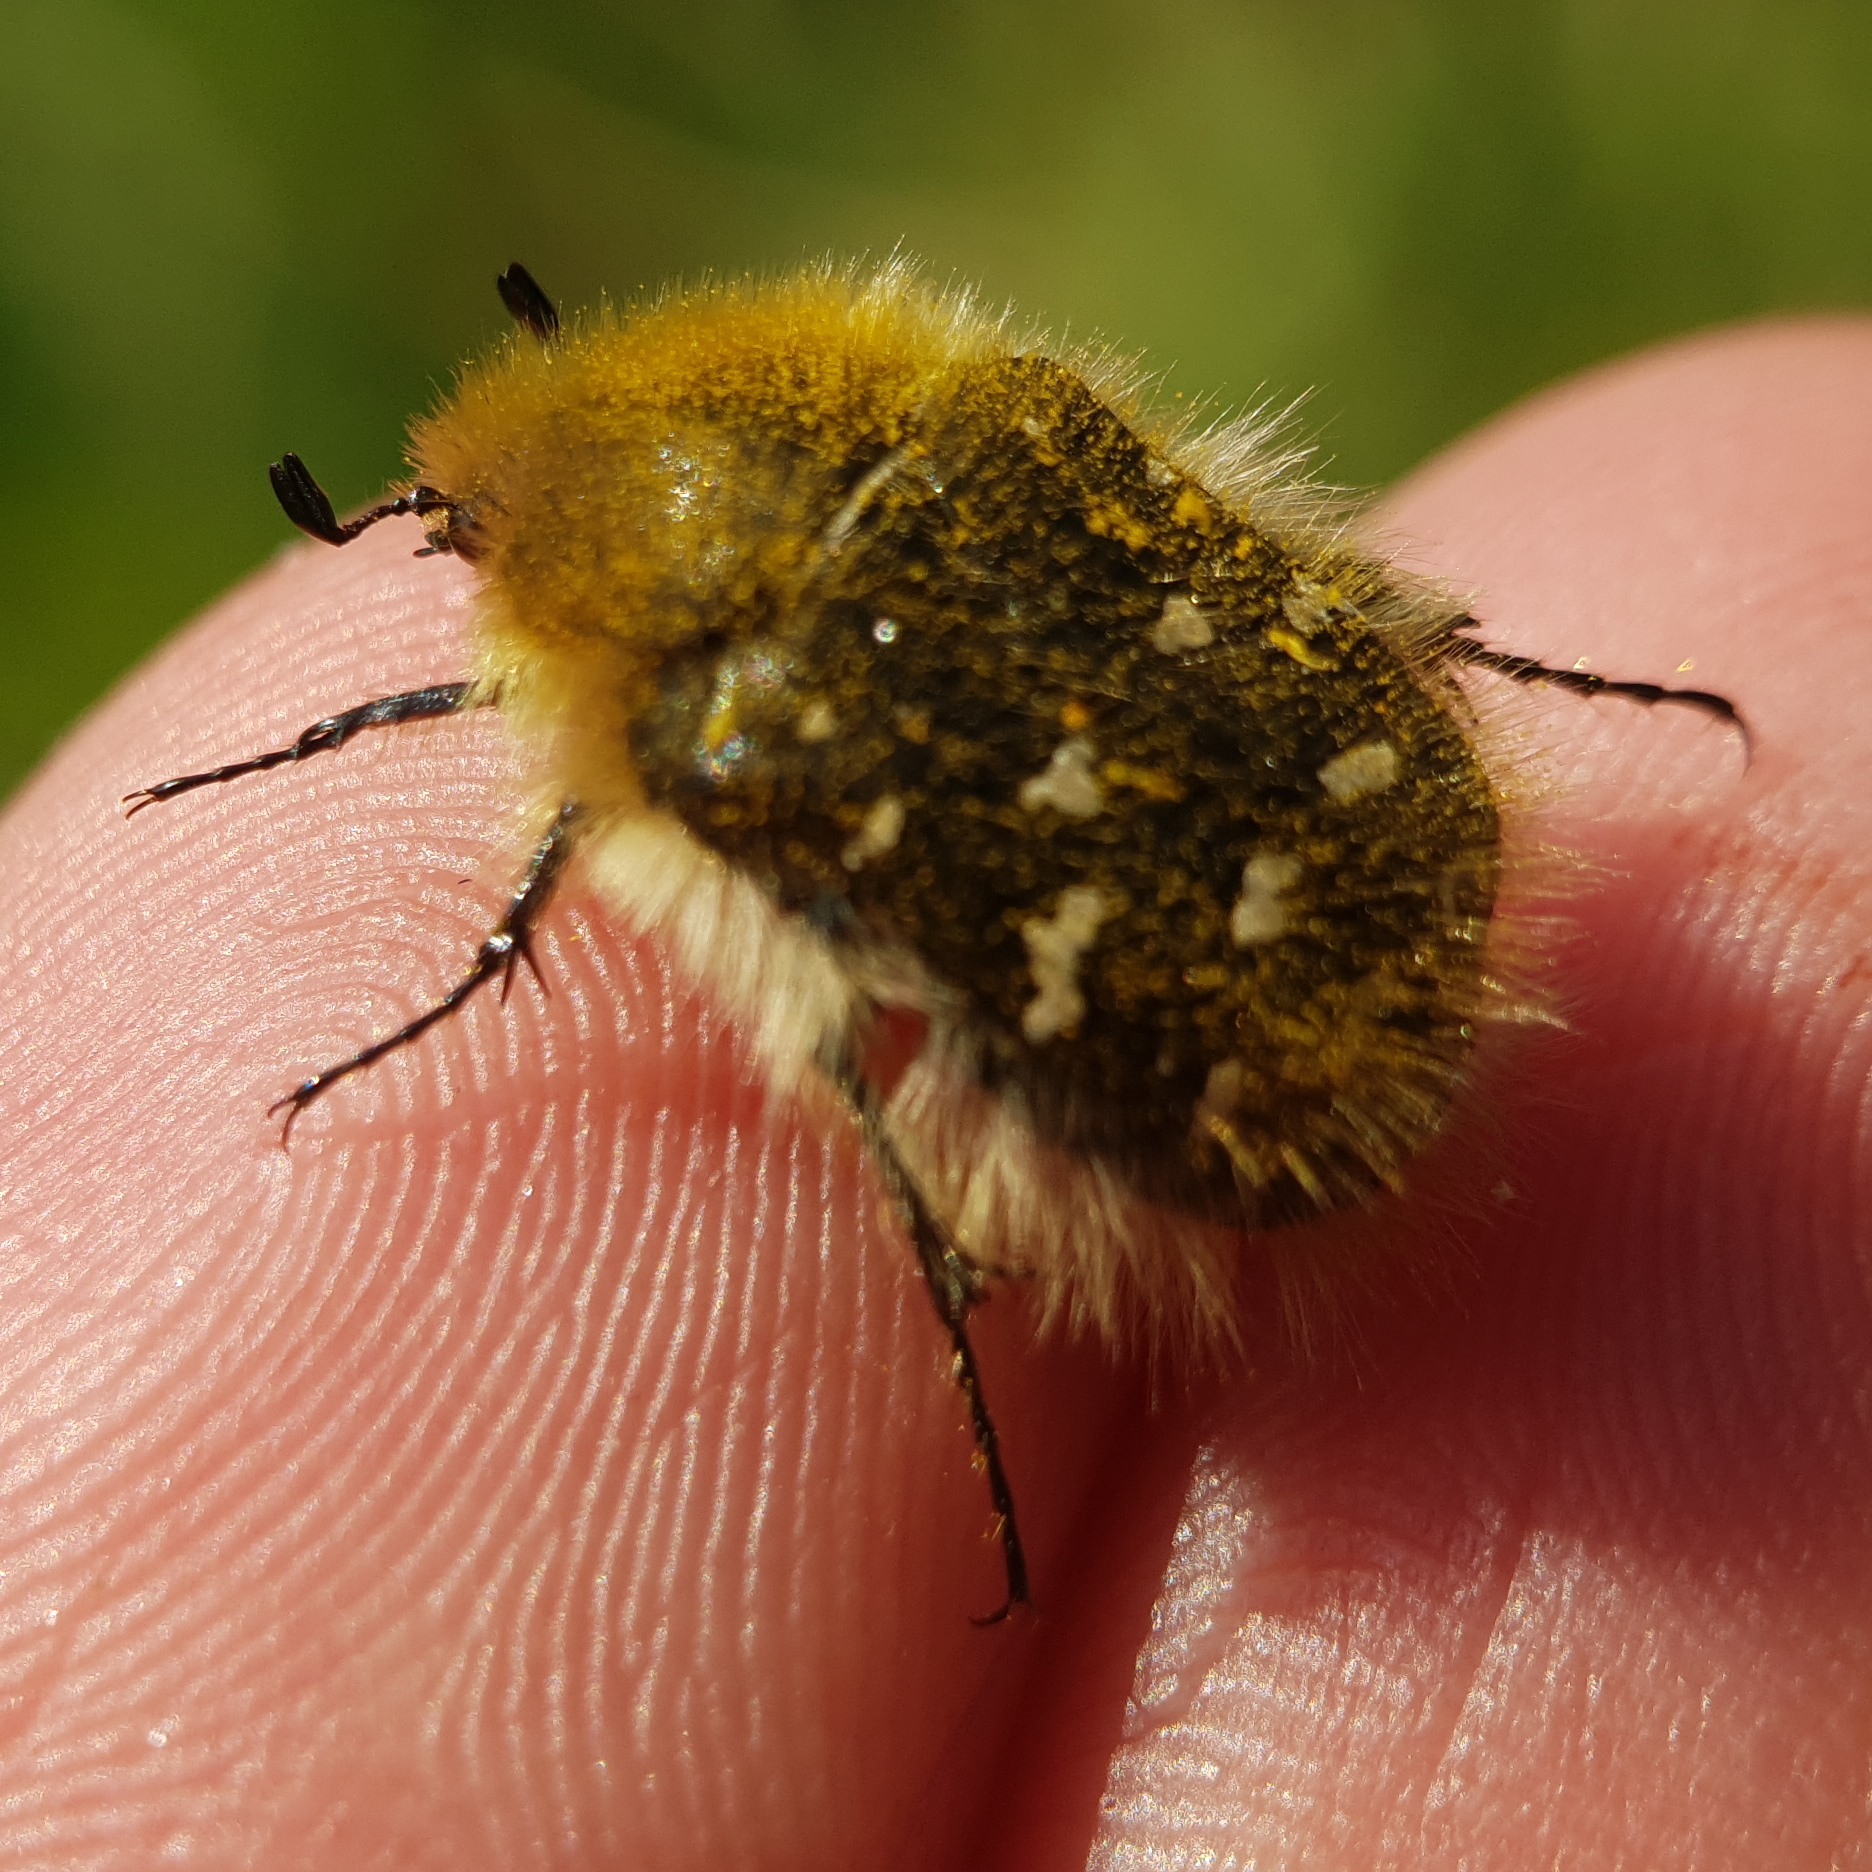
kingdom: Animalia
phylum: Arthropoda
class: Insecta
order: Coleoptera
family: Scarabaeidae
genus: Tropinota
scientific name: Tropinota hirta
